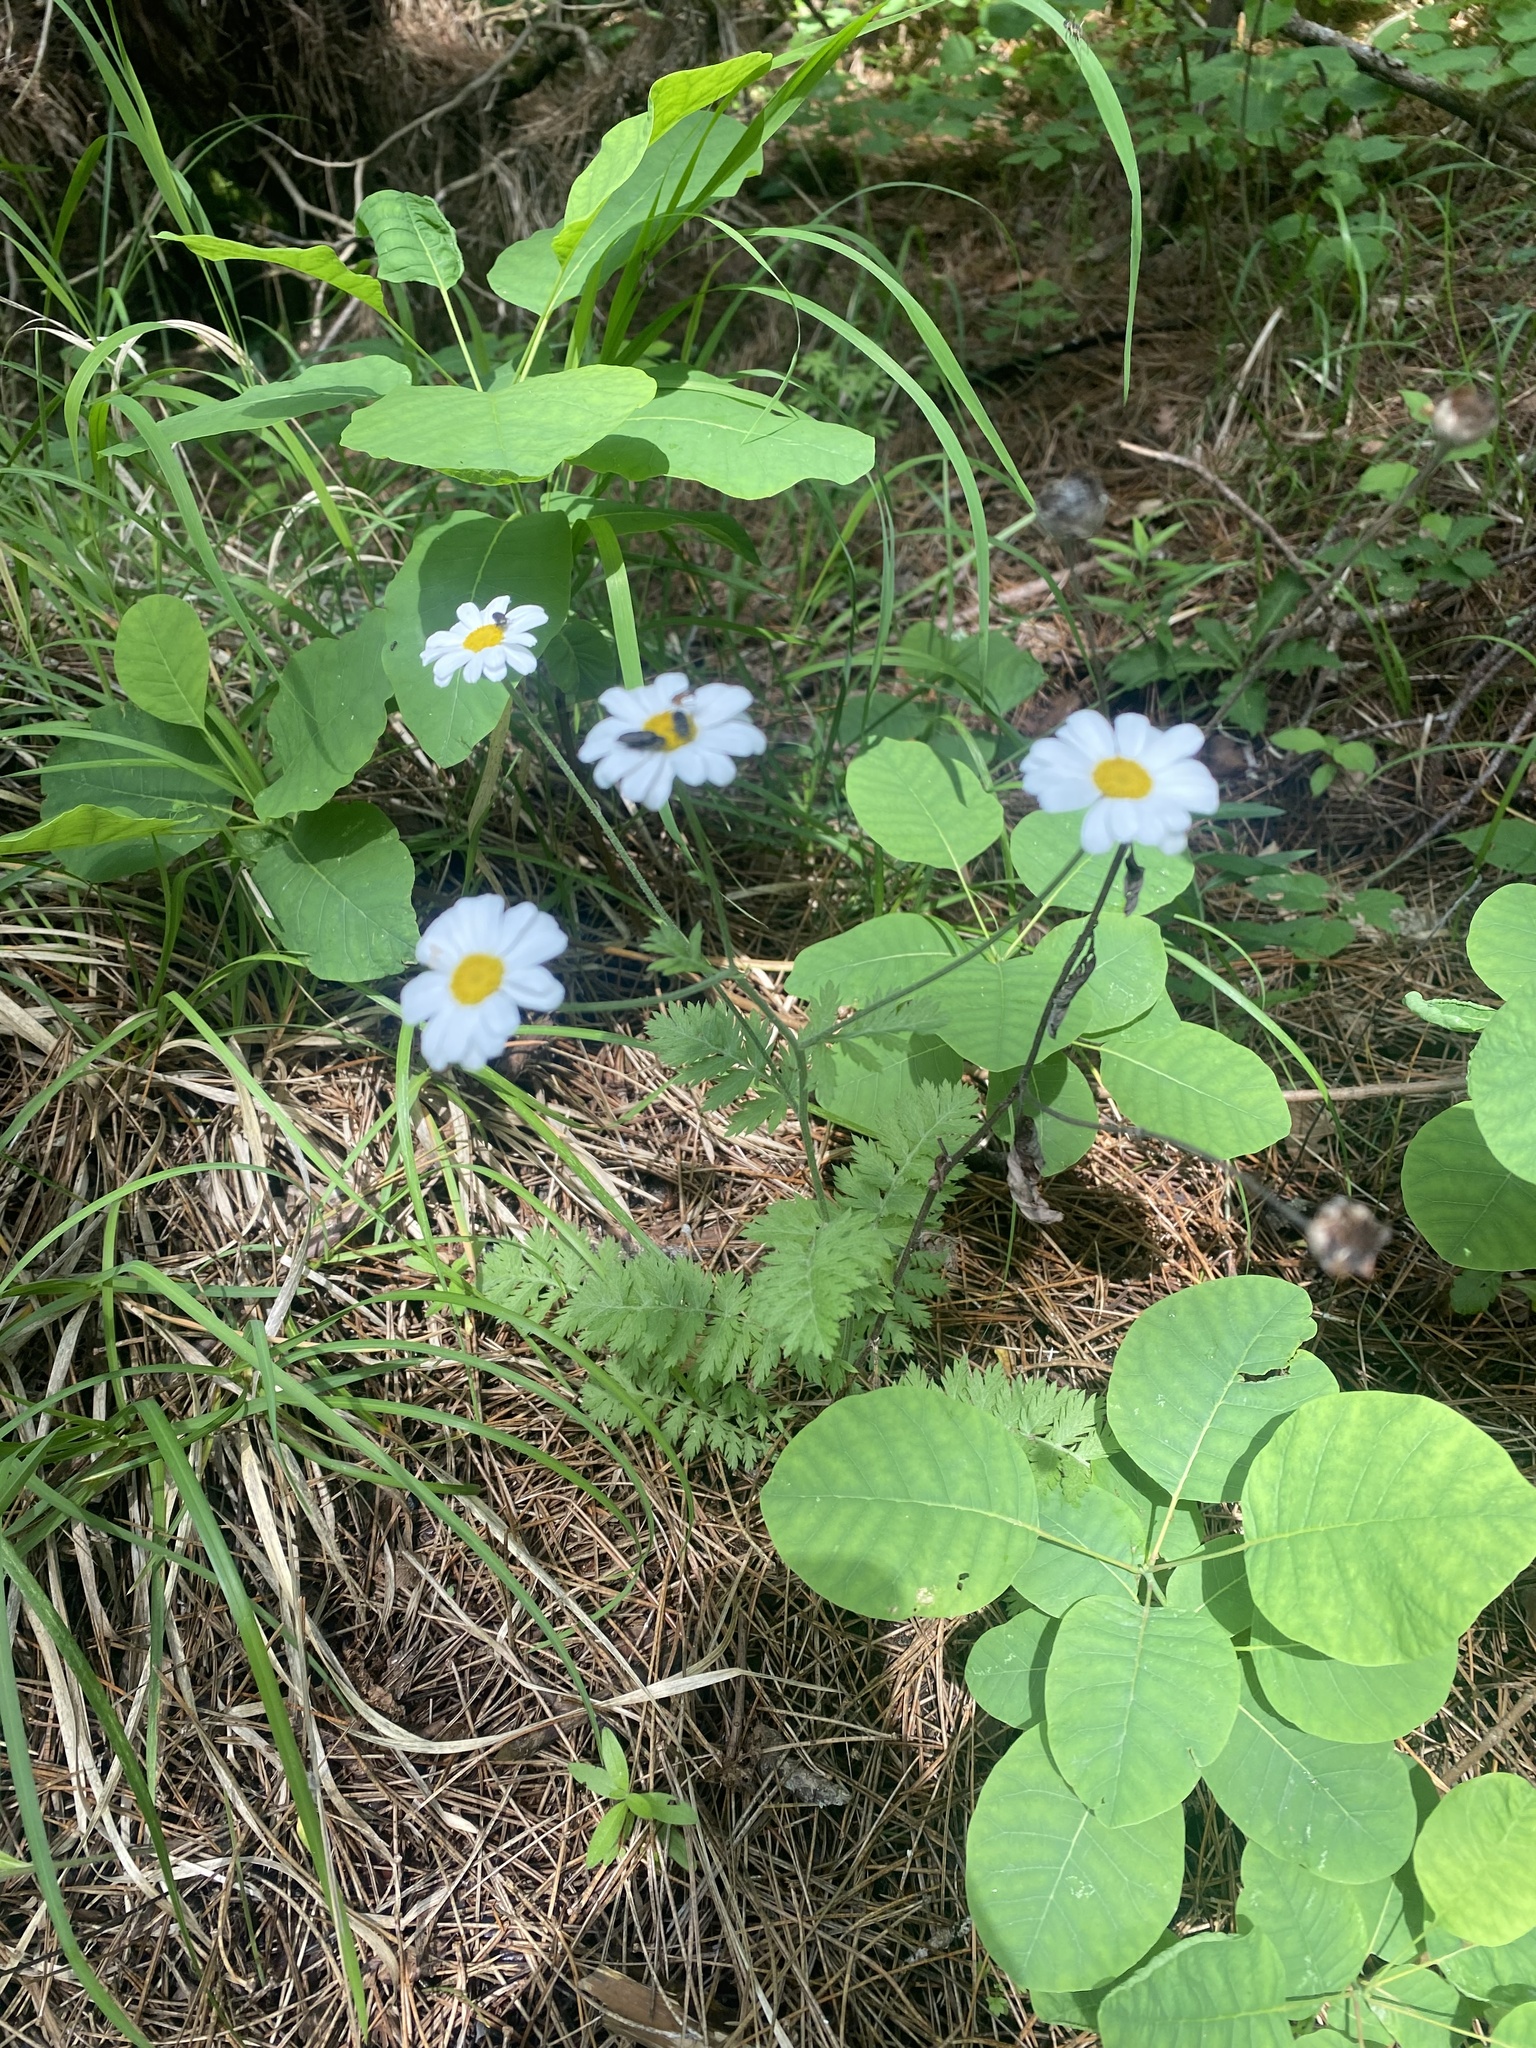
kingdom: Plantae
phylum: Tracheophyta
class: Magnoliopsida
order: Asterales
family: Asteraceae
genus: Tanacetum
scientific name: Tanacetum poteriifolium
